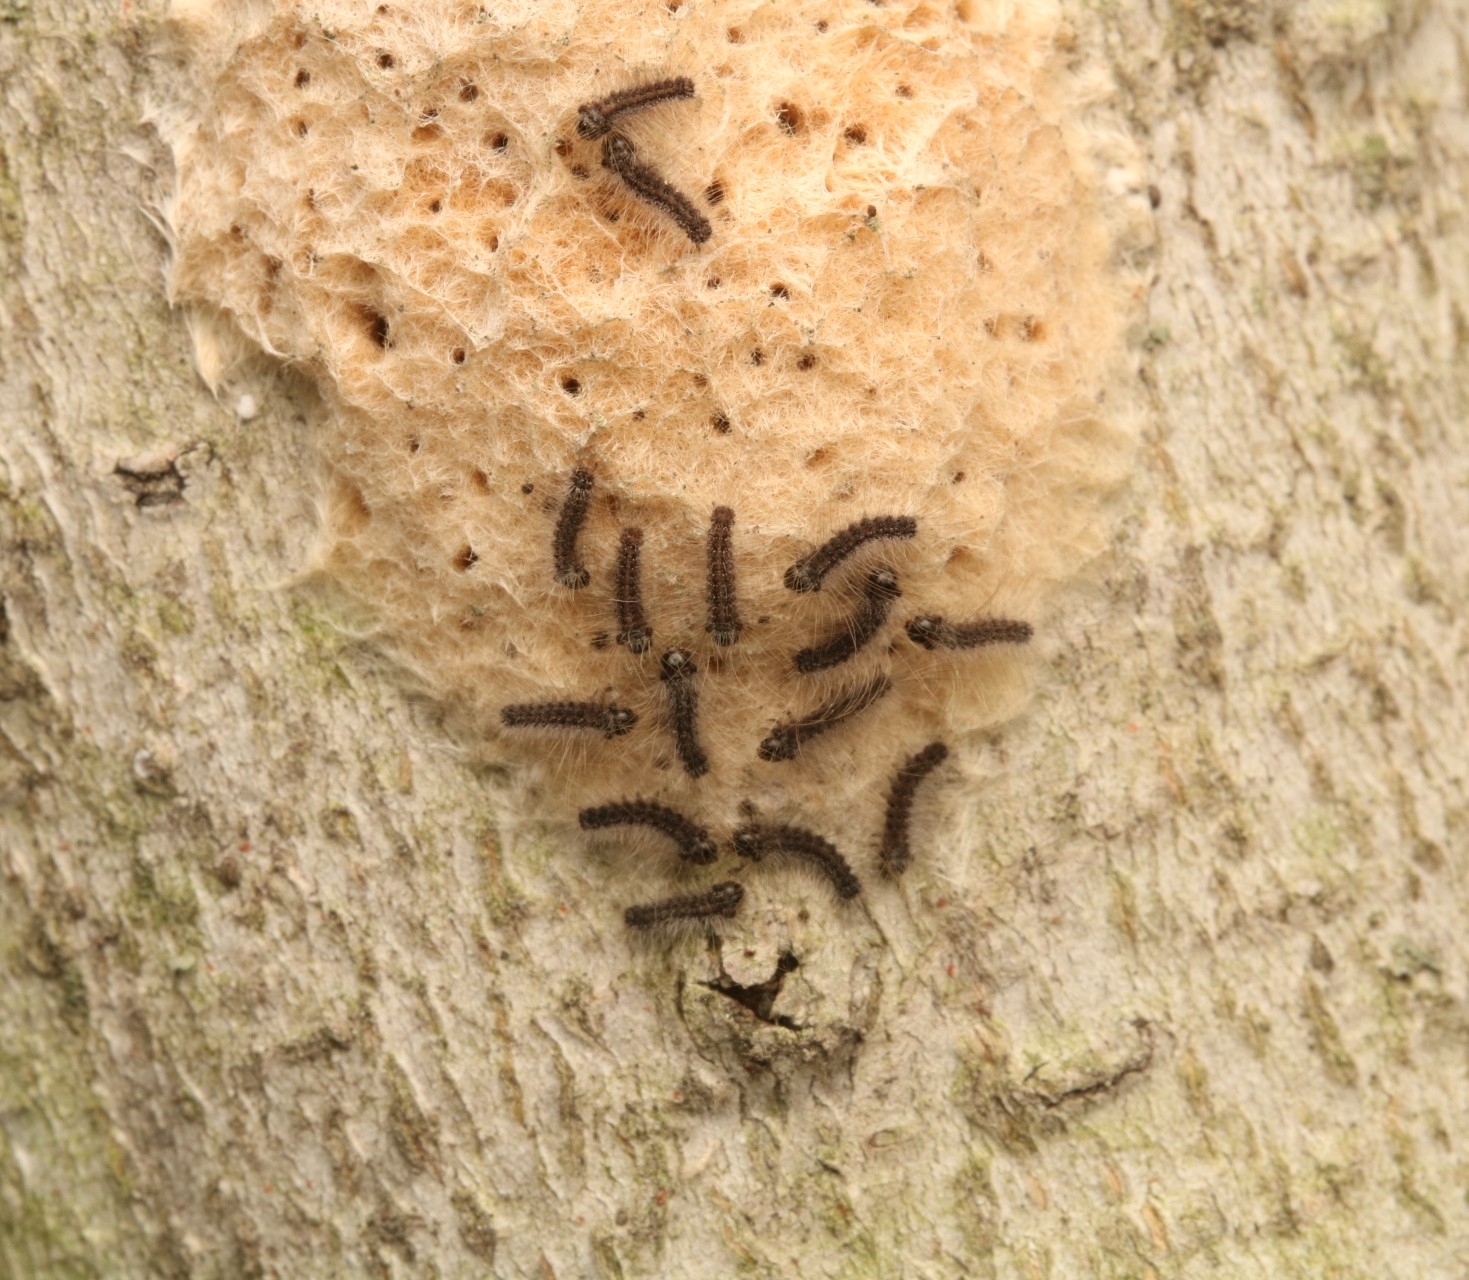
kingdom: Animalia
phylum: Arthropoda
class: Insecta
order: Lepidoptera
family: Erebidae
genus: Lymantria
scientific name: Lymantria dispar
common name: Gypsy moth
